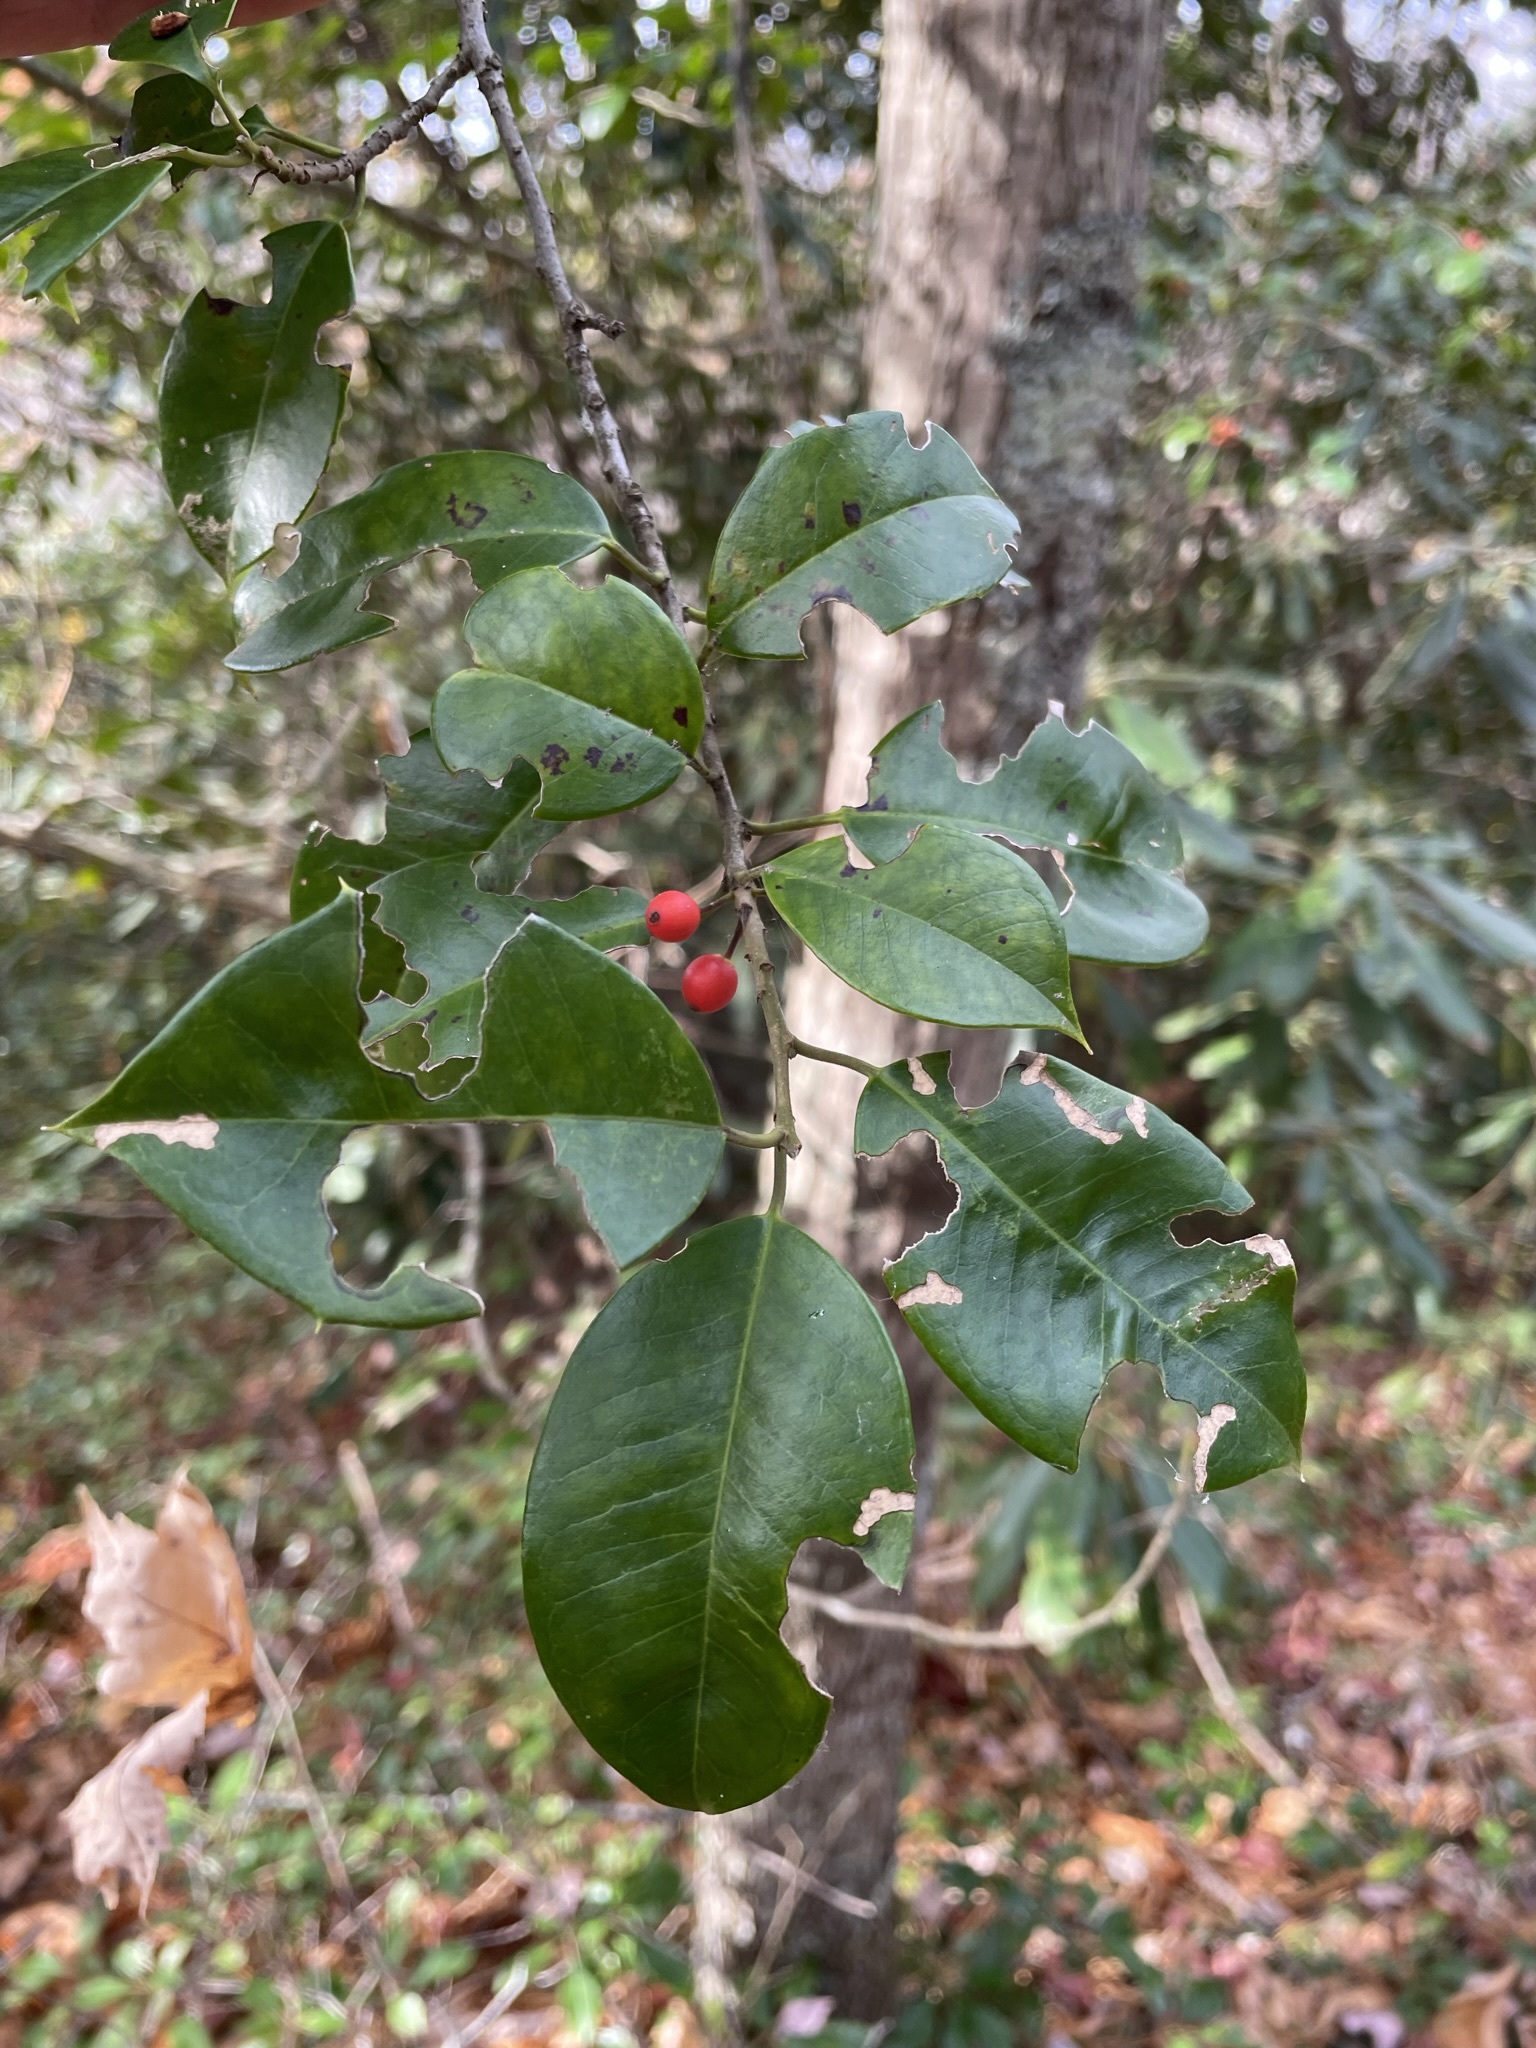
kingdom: Plantae
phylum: Tracheophyta
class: Magnoliopsida
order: Aquifoliales
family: Aquifoliaceae
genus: Ilex
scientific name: Ilex opaca
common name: American holly
